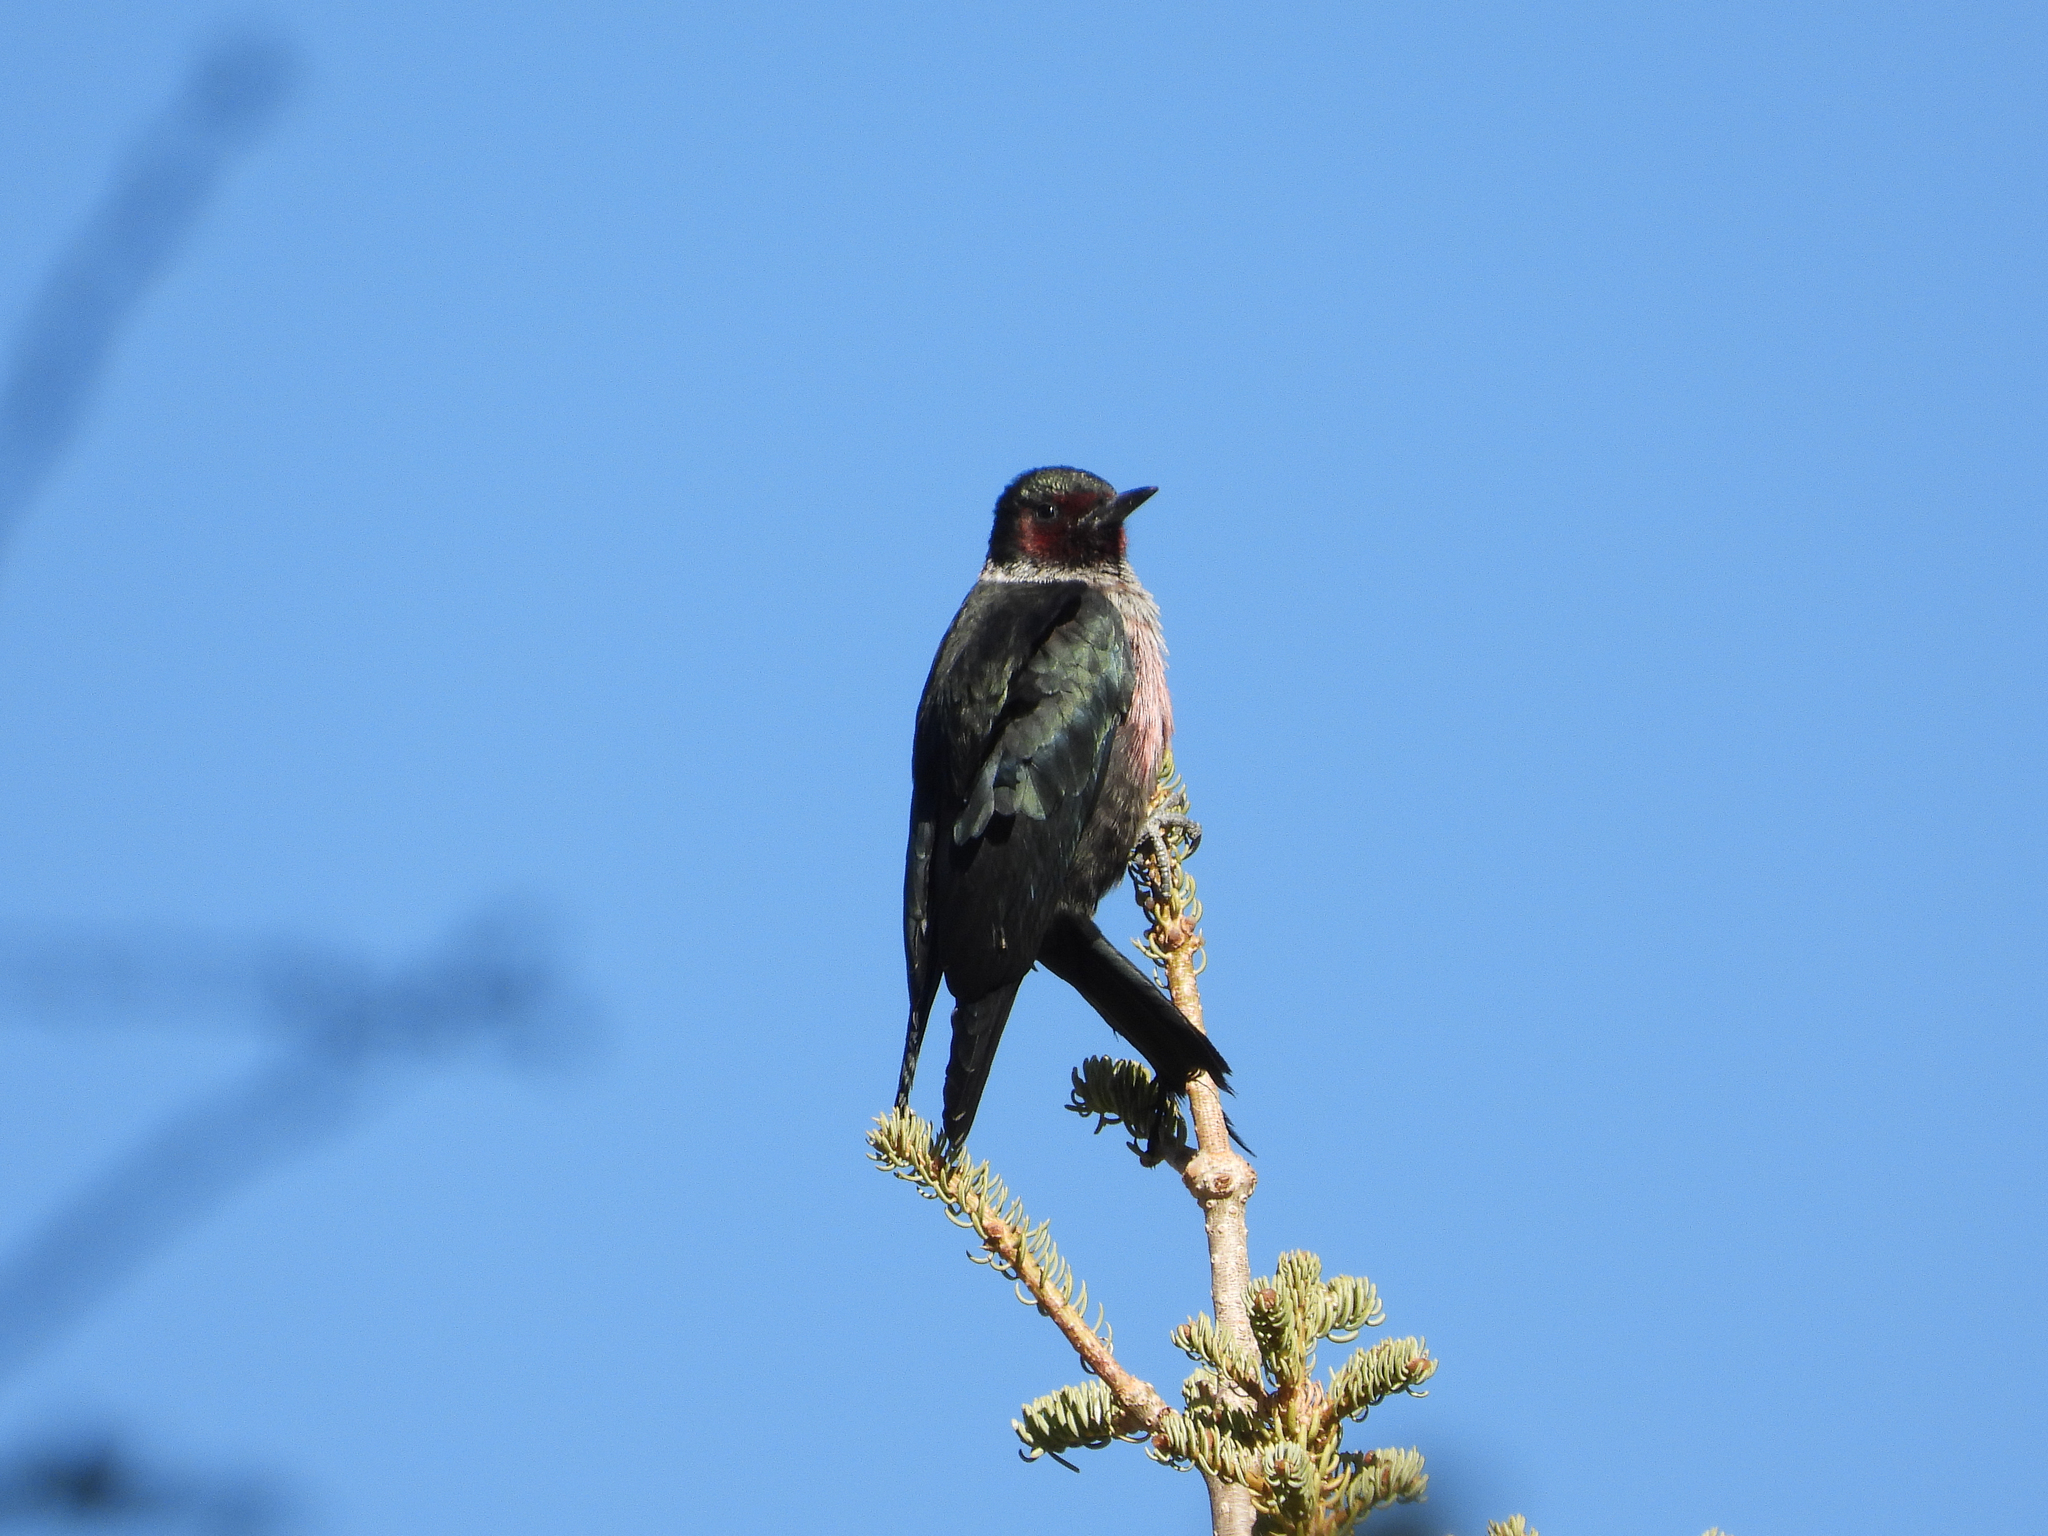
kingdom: Animalia
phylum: Chordata
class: Aves
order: Piciformes
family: Picidae
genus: Melanerpes
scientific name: Melanerpes lewis
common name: Lewis's woodpecker
